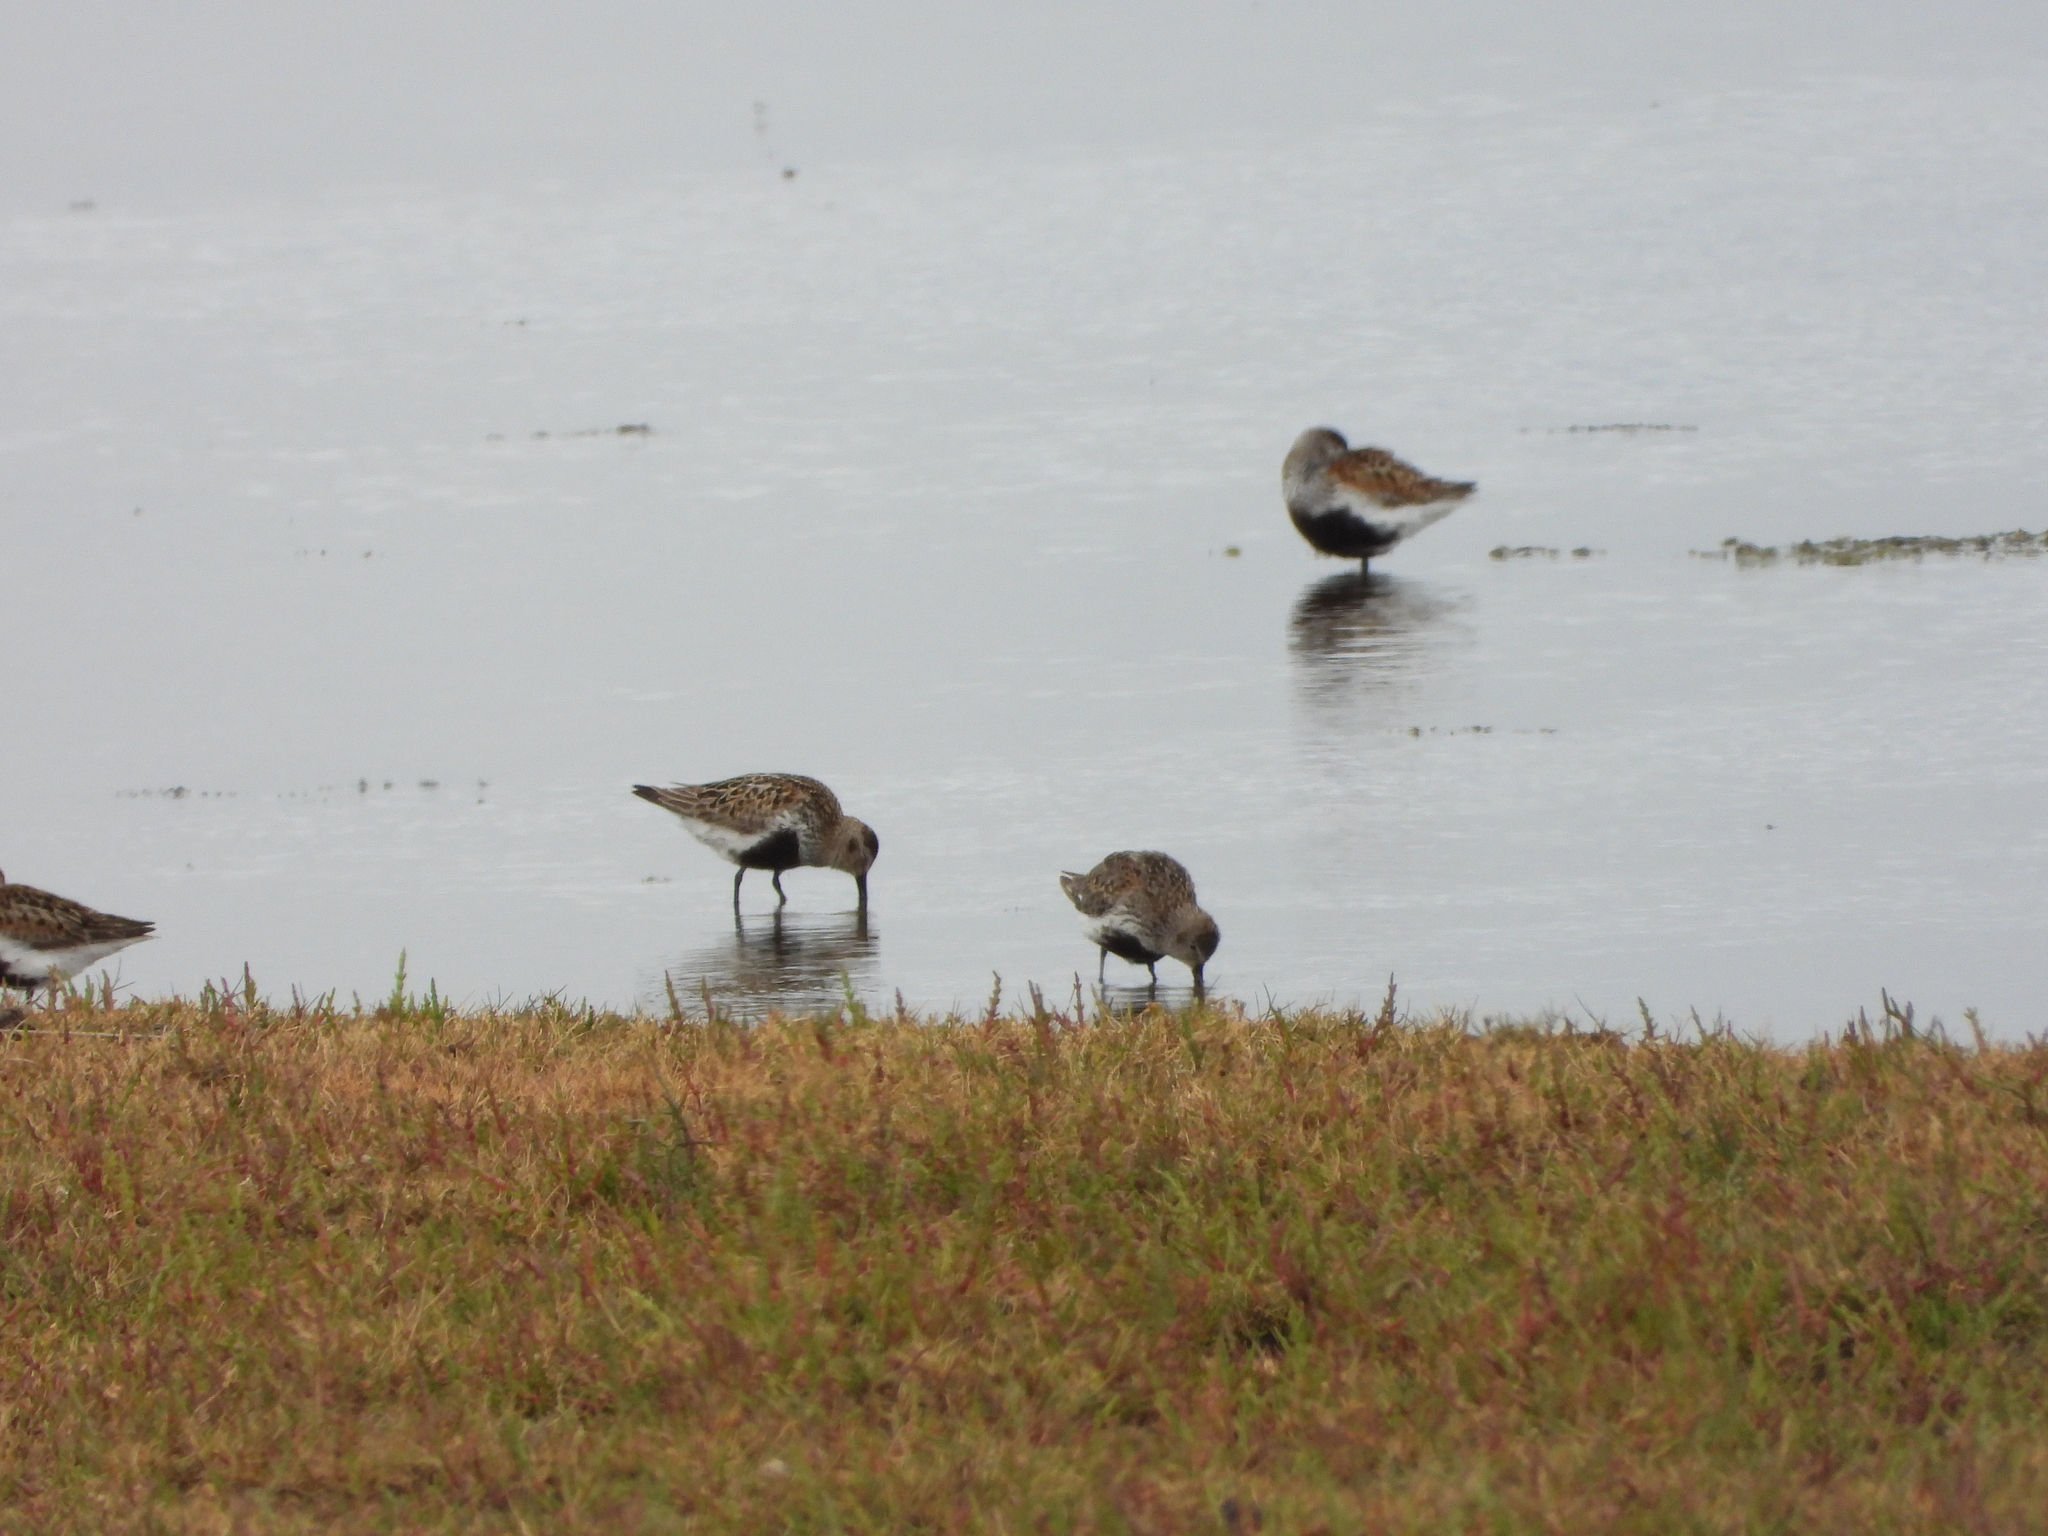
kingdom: Animalia
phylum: Chordata
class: Aves
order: Charadriiformes
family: Scolopacidae
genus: Calidris
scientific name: Calidris alpina
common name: Dunlin
